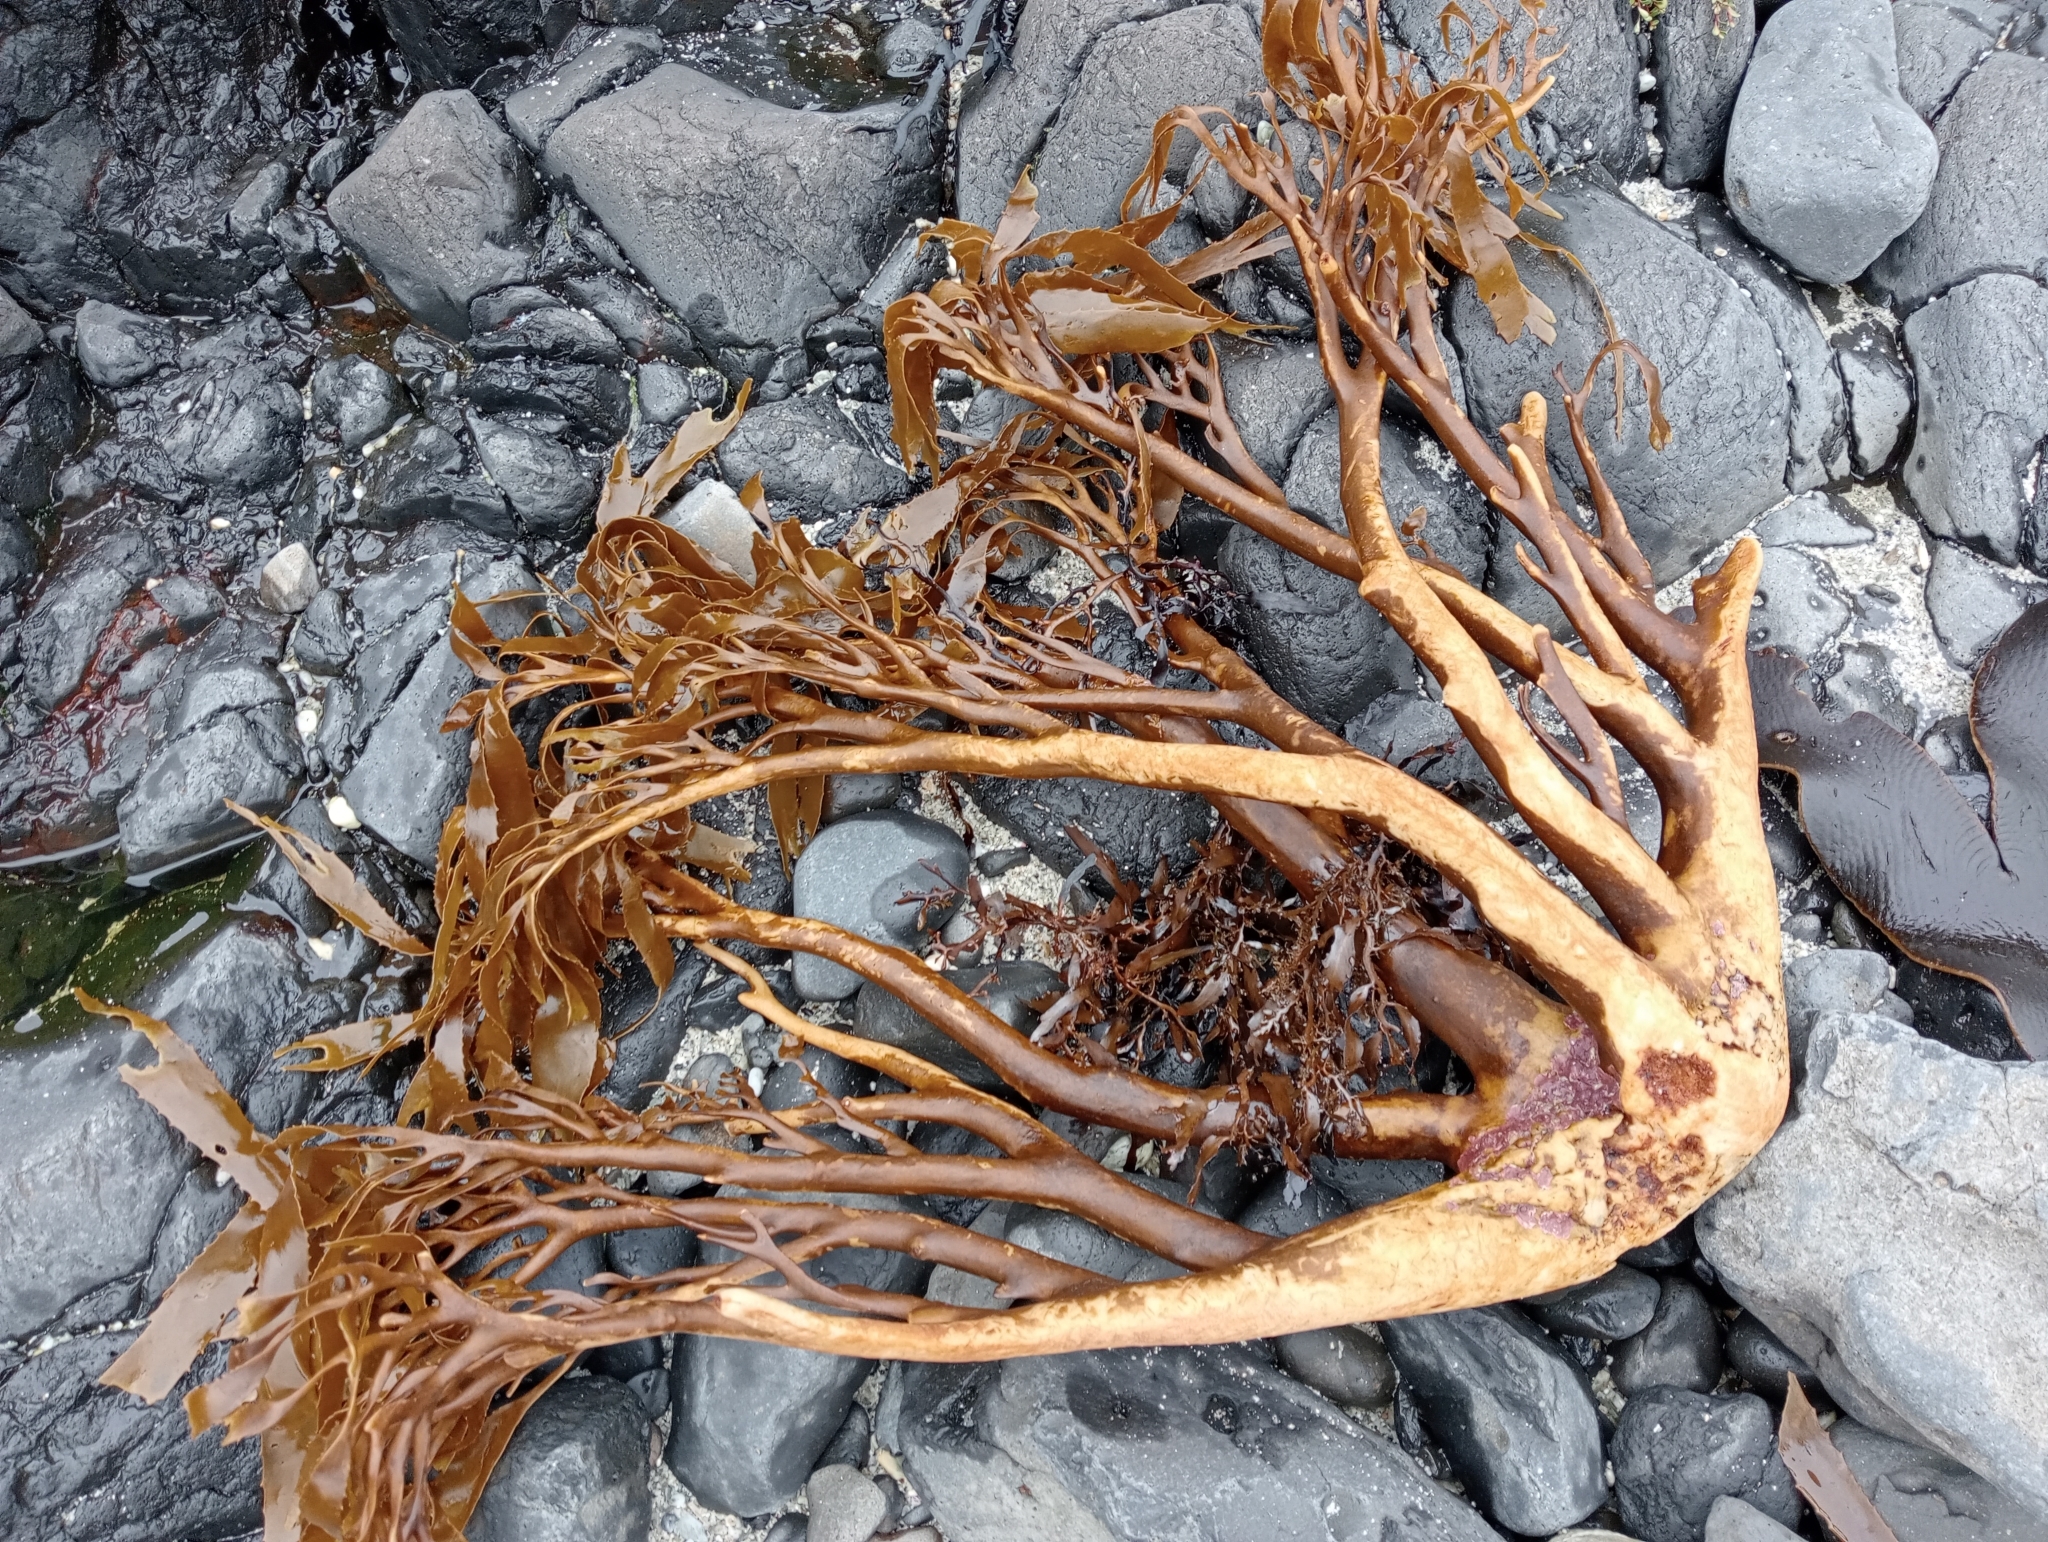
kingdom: Chromista
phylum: Ochrophyta
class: Phaeophyceae
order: Laminariales
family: Lessoniaceae
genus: Lessonia
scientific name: Lessonia tholiformis
